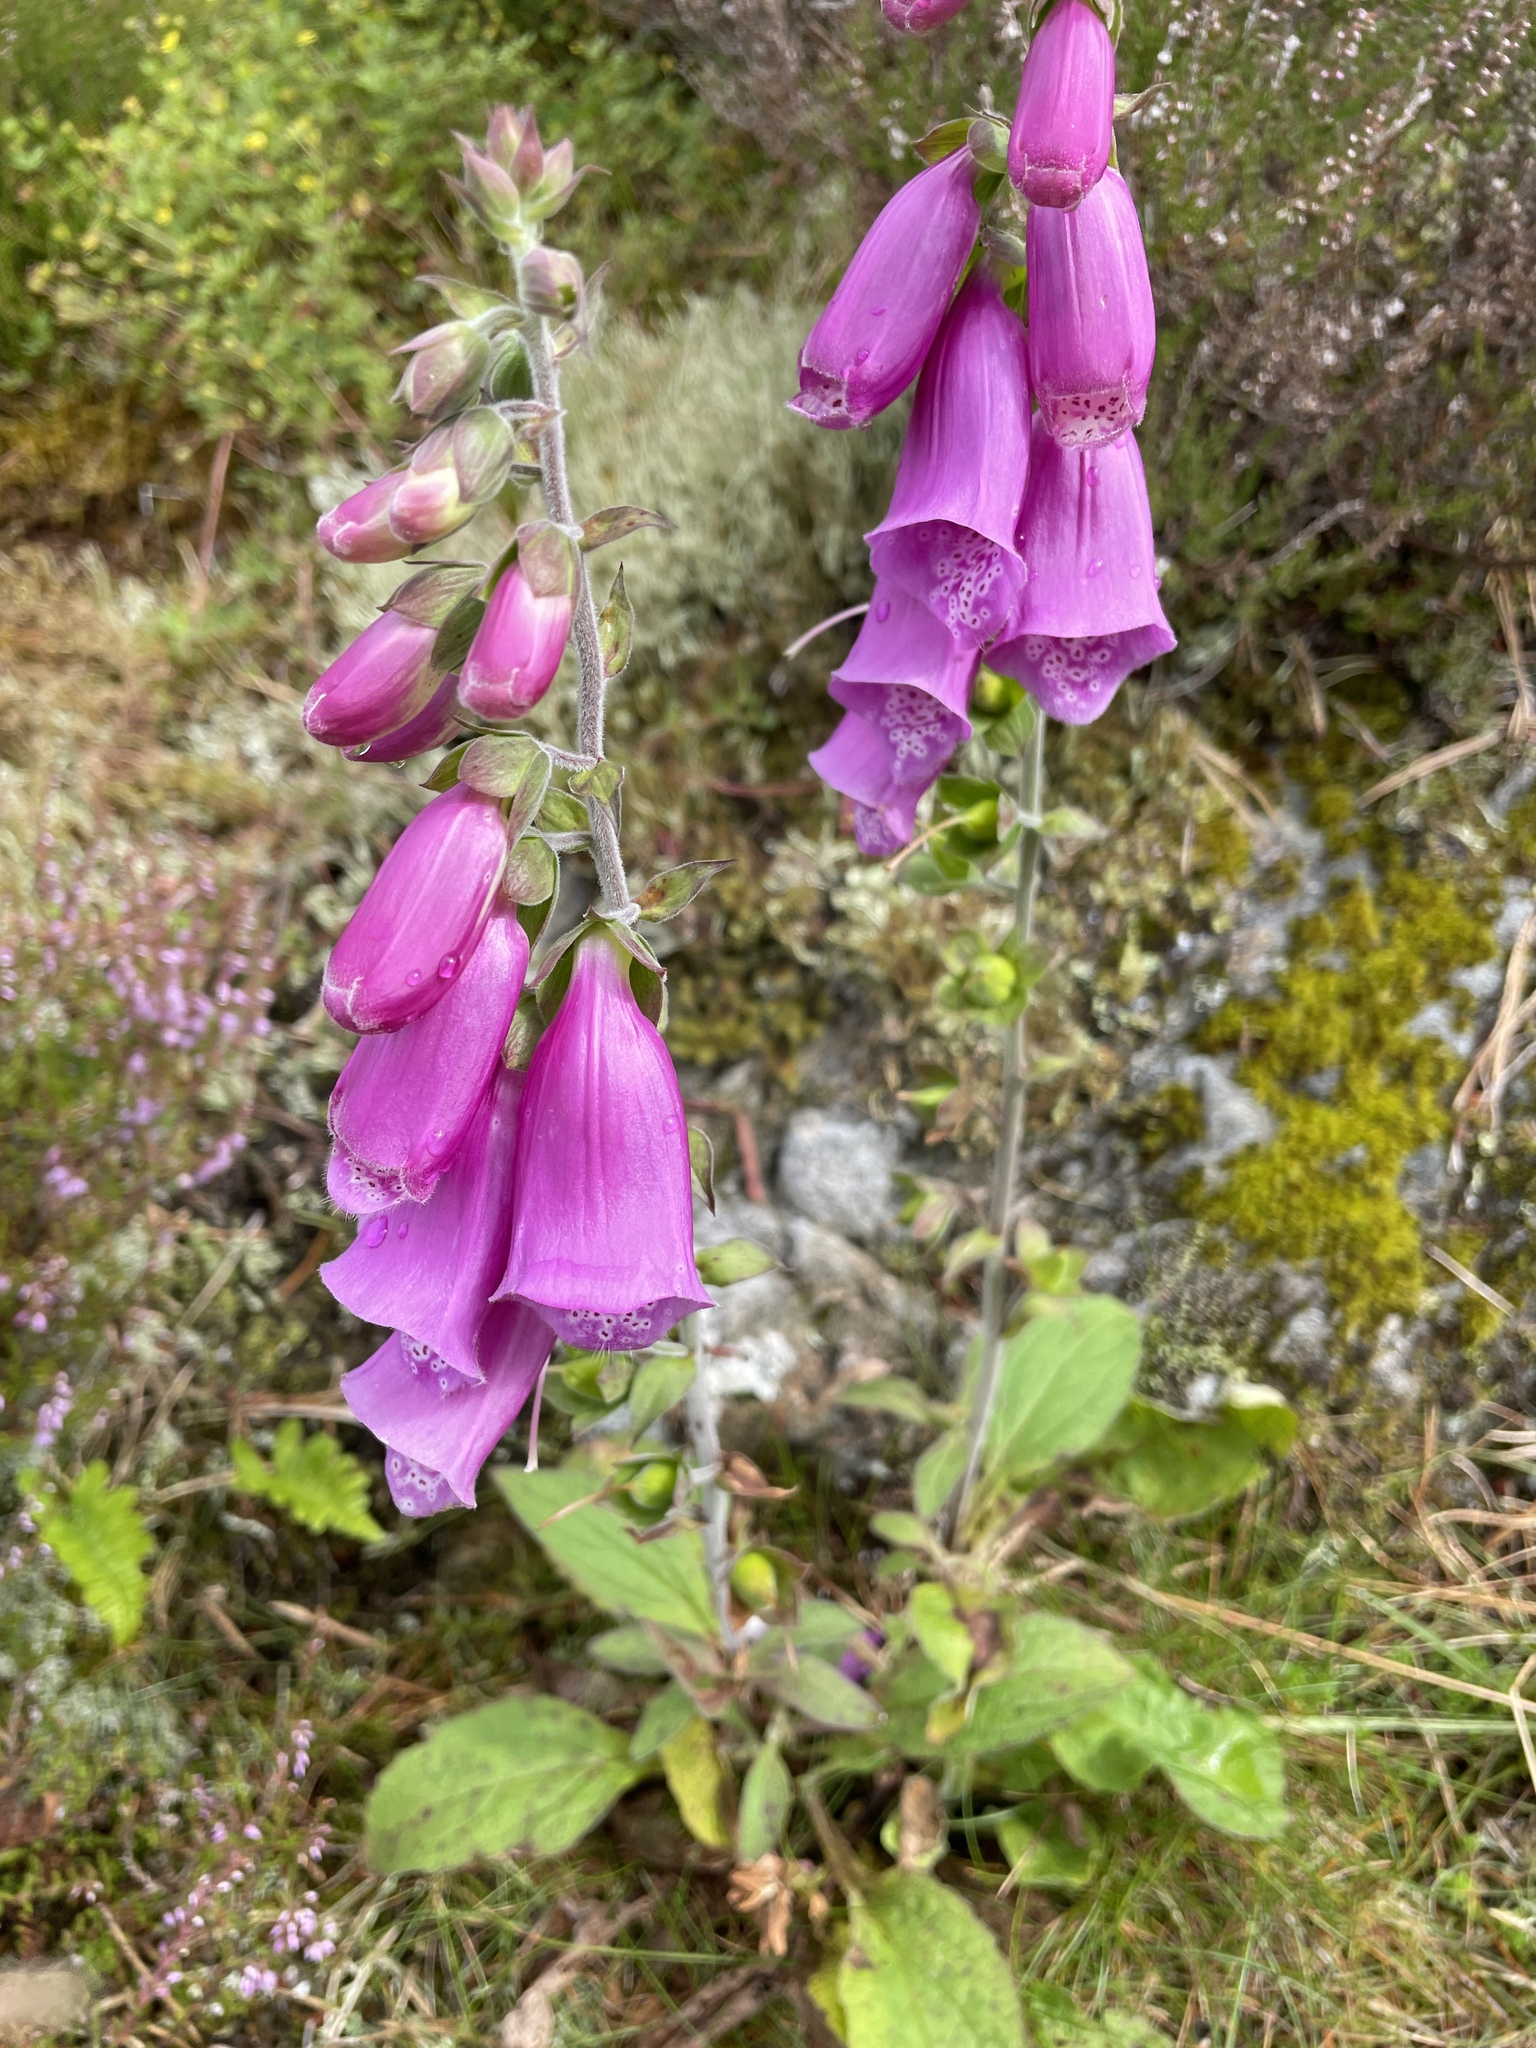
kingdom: Plantae
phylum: Tracheophyta
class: Magnoliopsida
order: Lamiales
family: Plantaginaceae
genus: Digitalis
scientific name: Digitalis purpurea
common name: Foxglove
